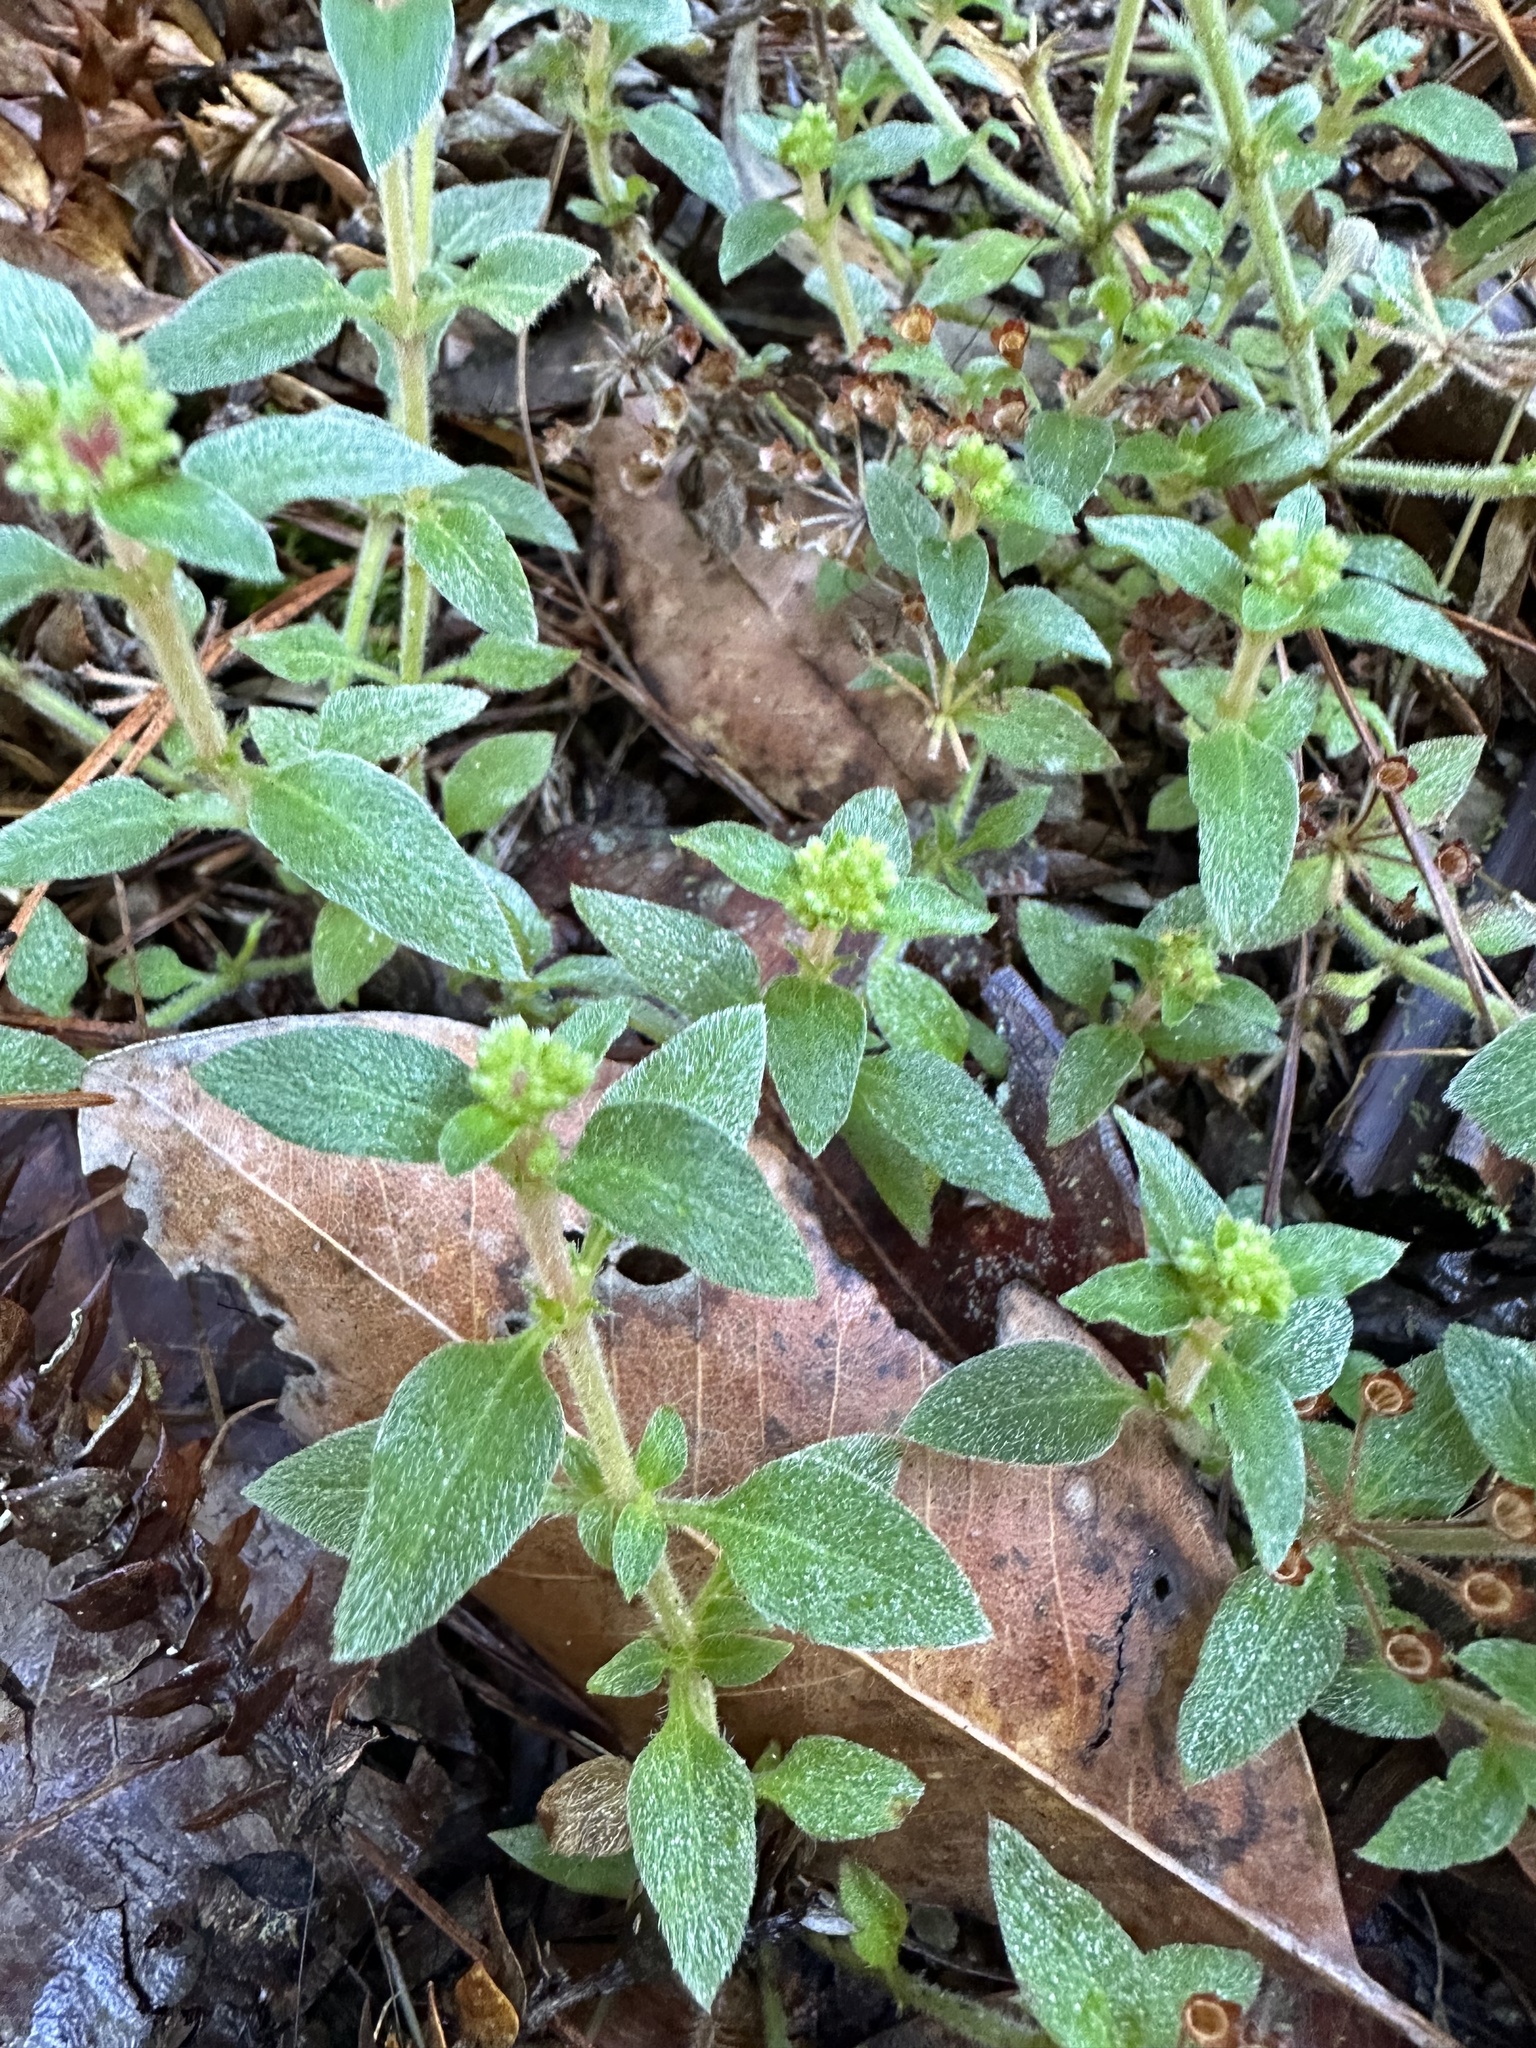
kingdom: Plantae
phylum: Tracheophyta
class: Magnoliopsida
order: Gentianales
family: Rubiaceae
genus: Pomax
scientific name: Pomax umbellata
